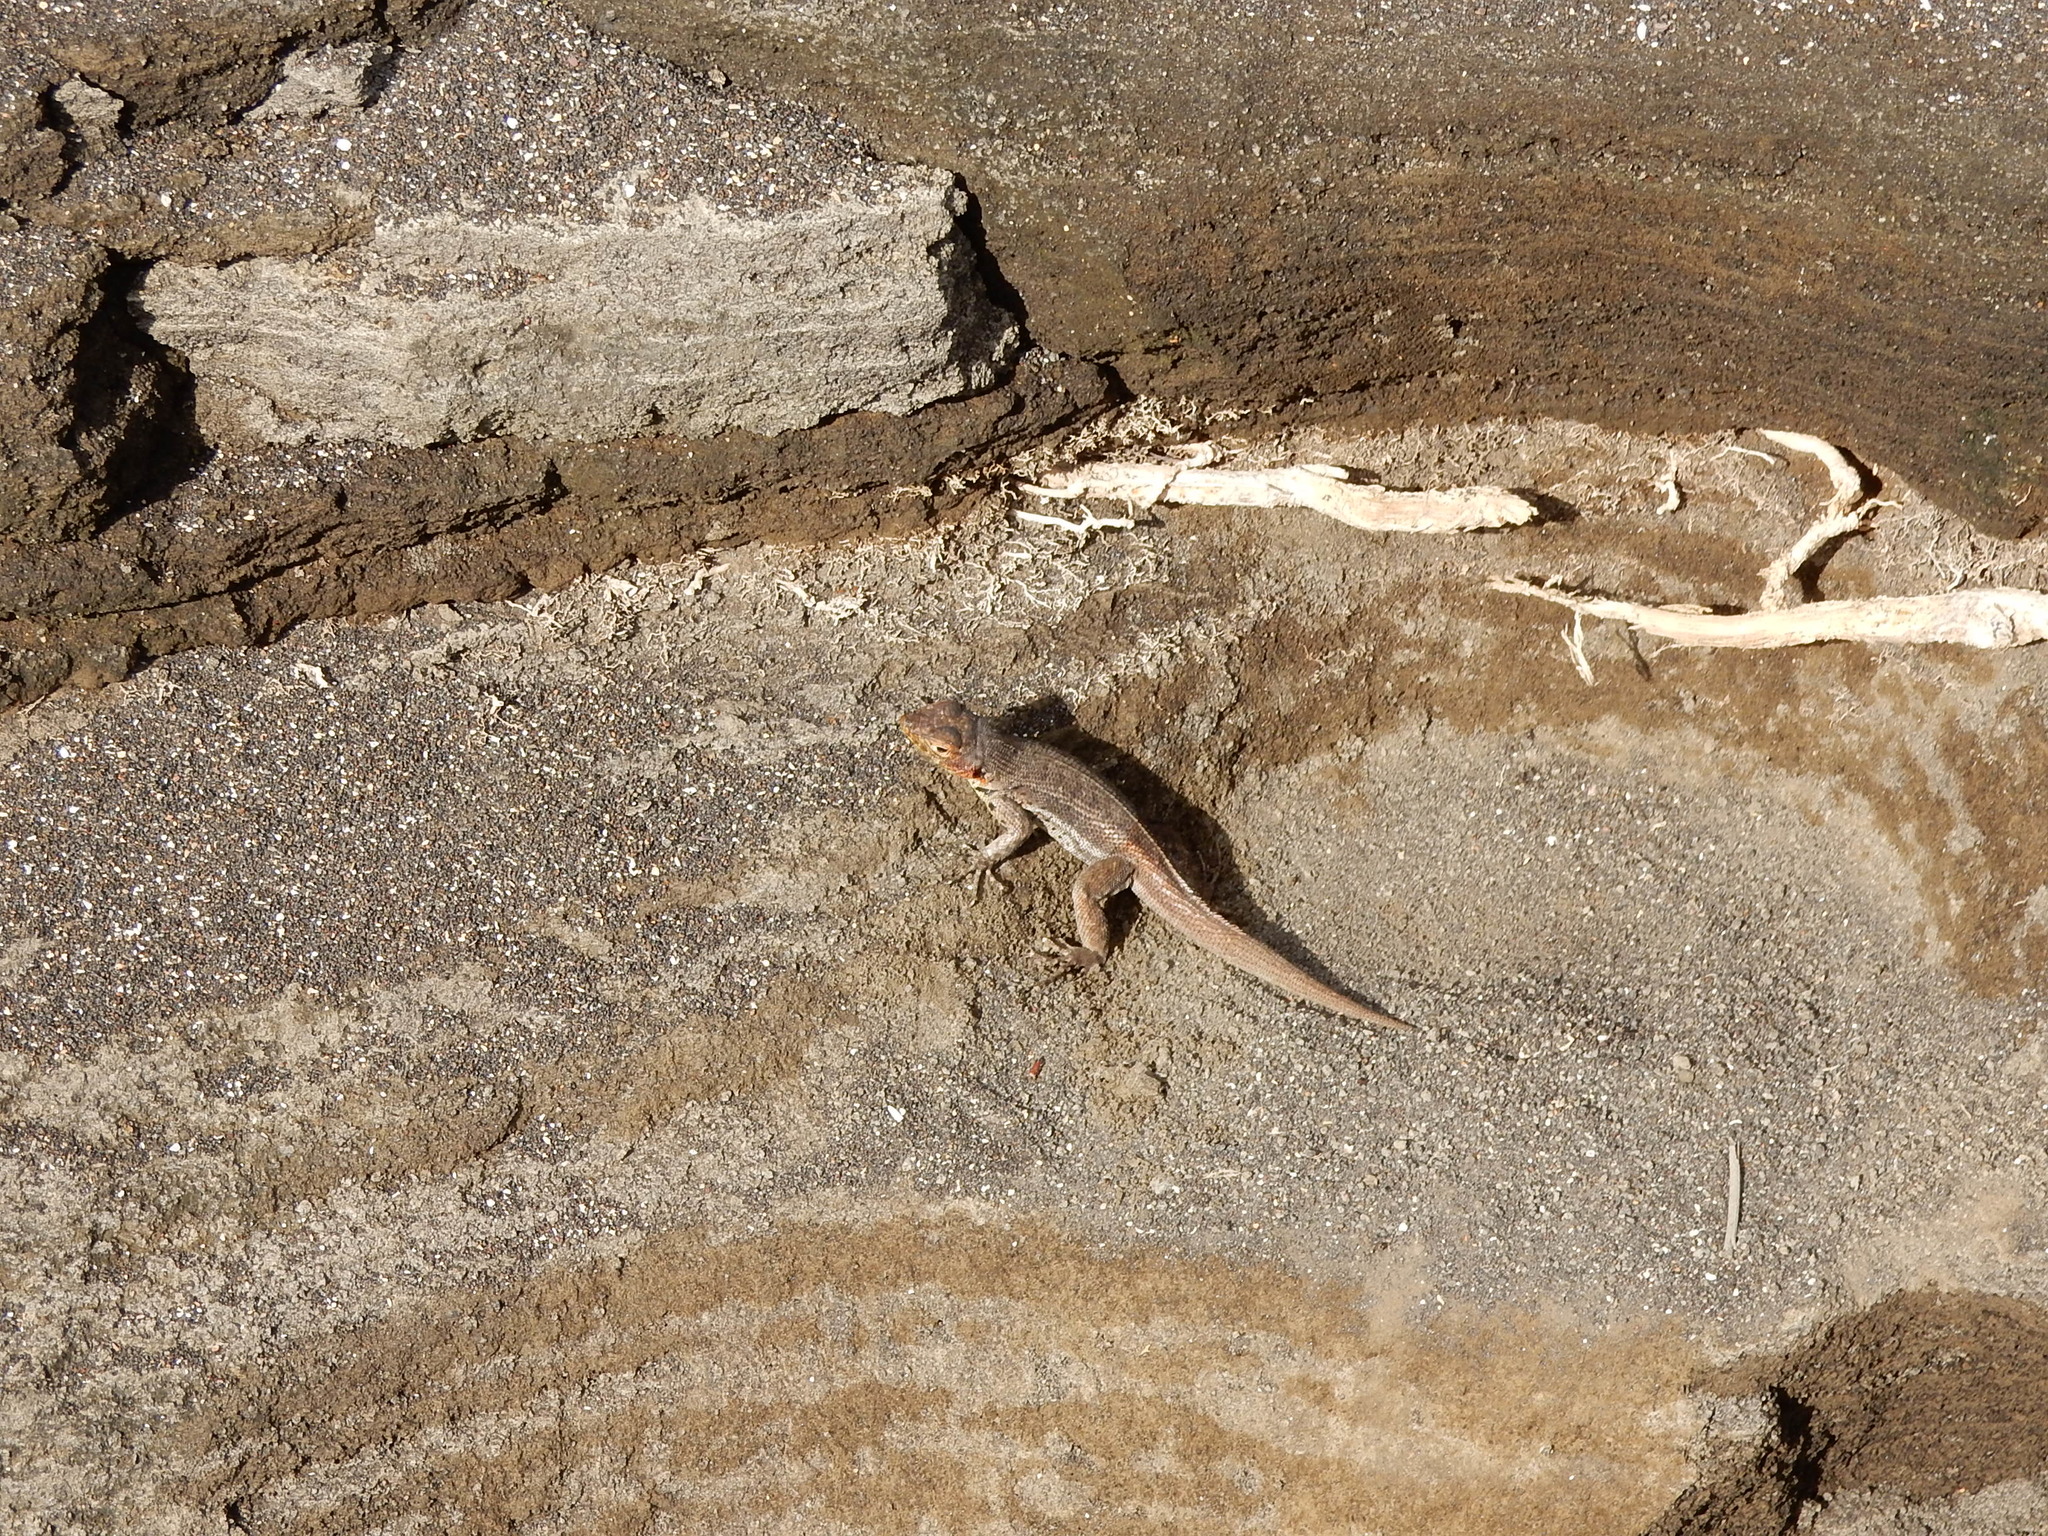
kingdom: Animalia
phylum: Chordata
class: Squamata
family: Tropiduridae
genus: Microlophus
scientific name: Microlophus jacobii
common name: Santiago lava lizard
